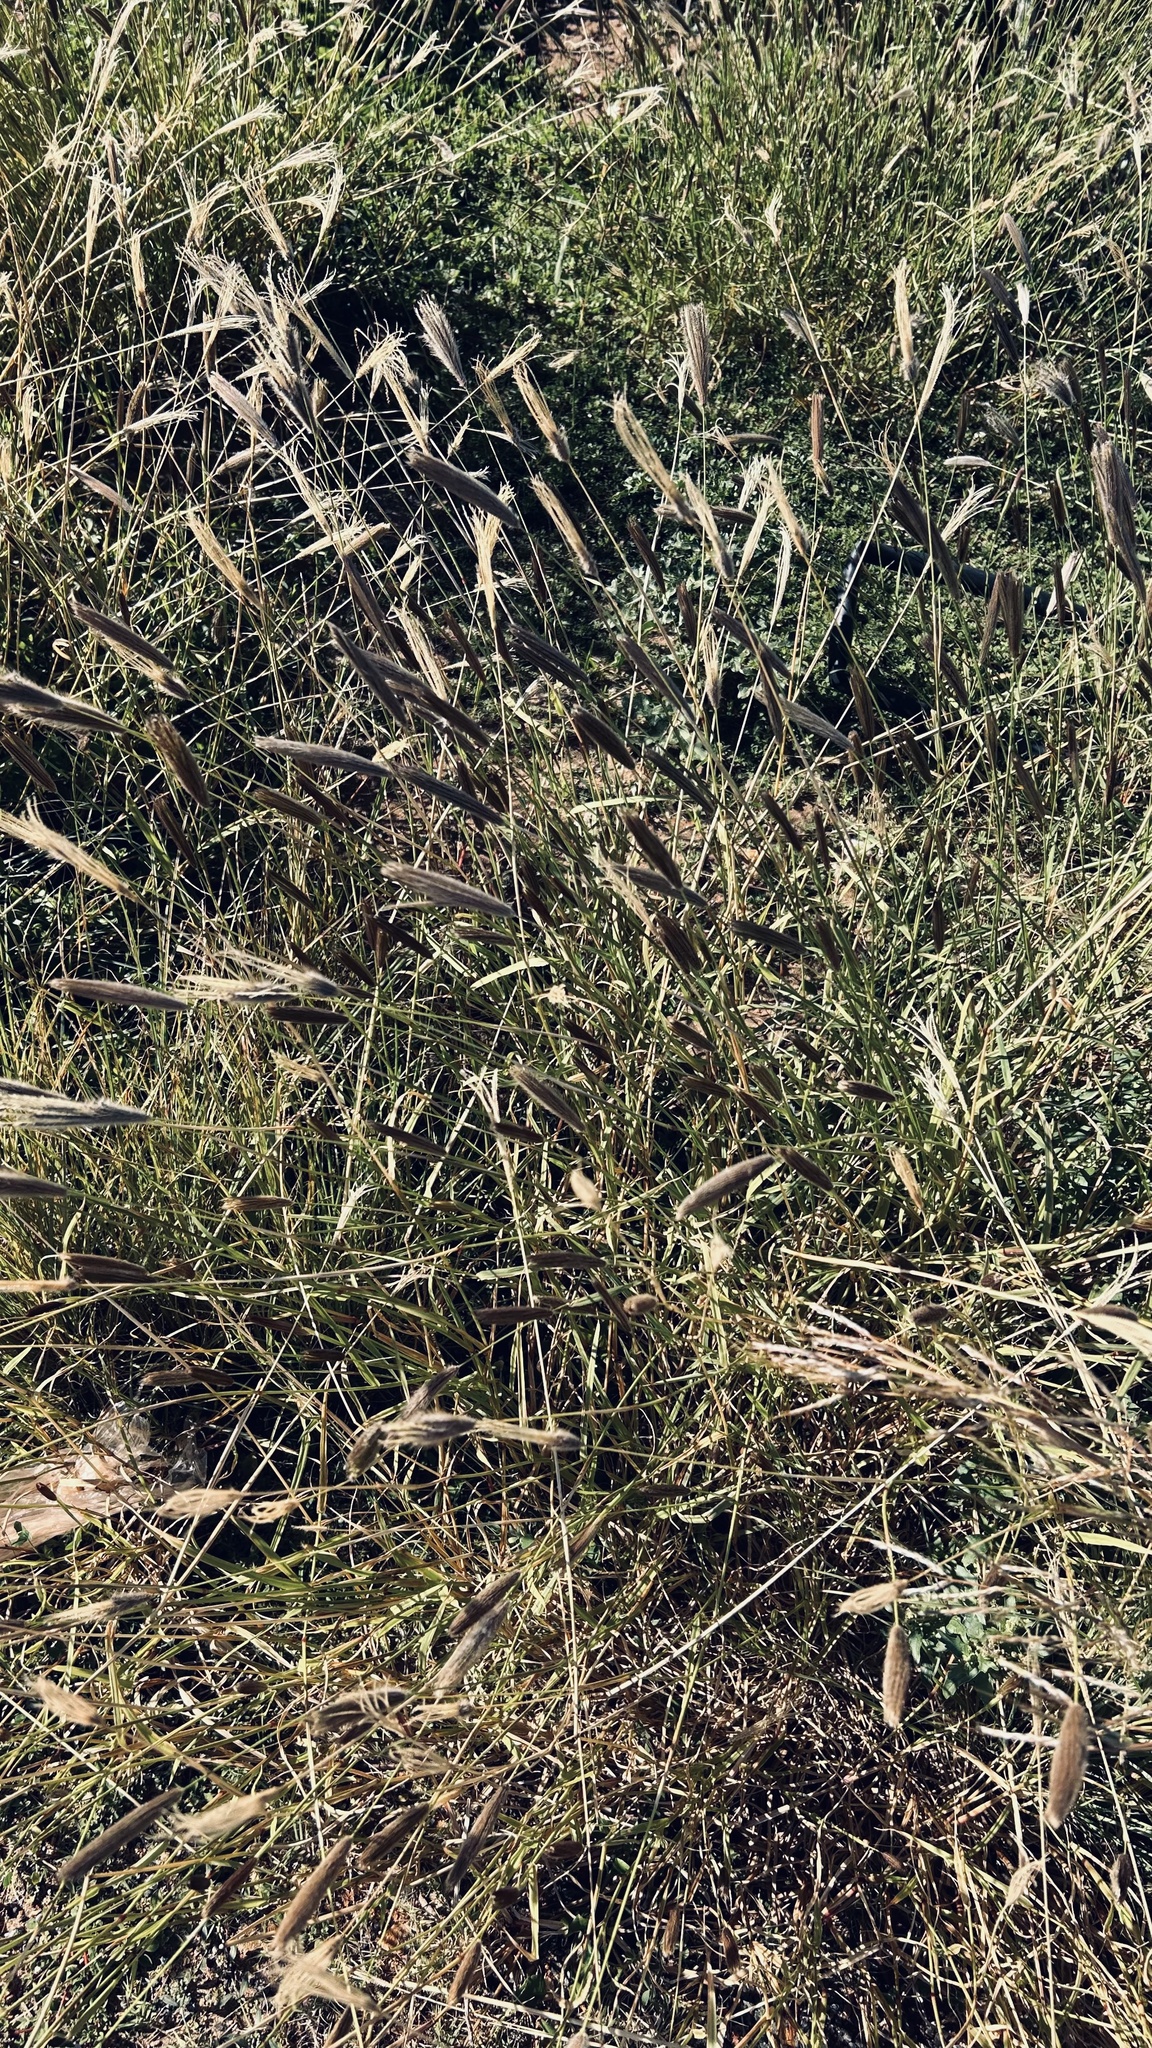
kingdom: Plantae
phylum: Tracheophyta
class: Liliopsida
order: Poales
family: Poaceae
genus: Chloris
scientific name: Chloris virgata
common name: Feathery rhodes-grass
